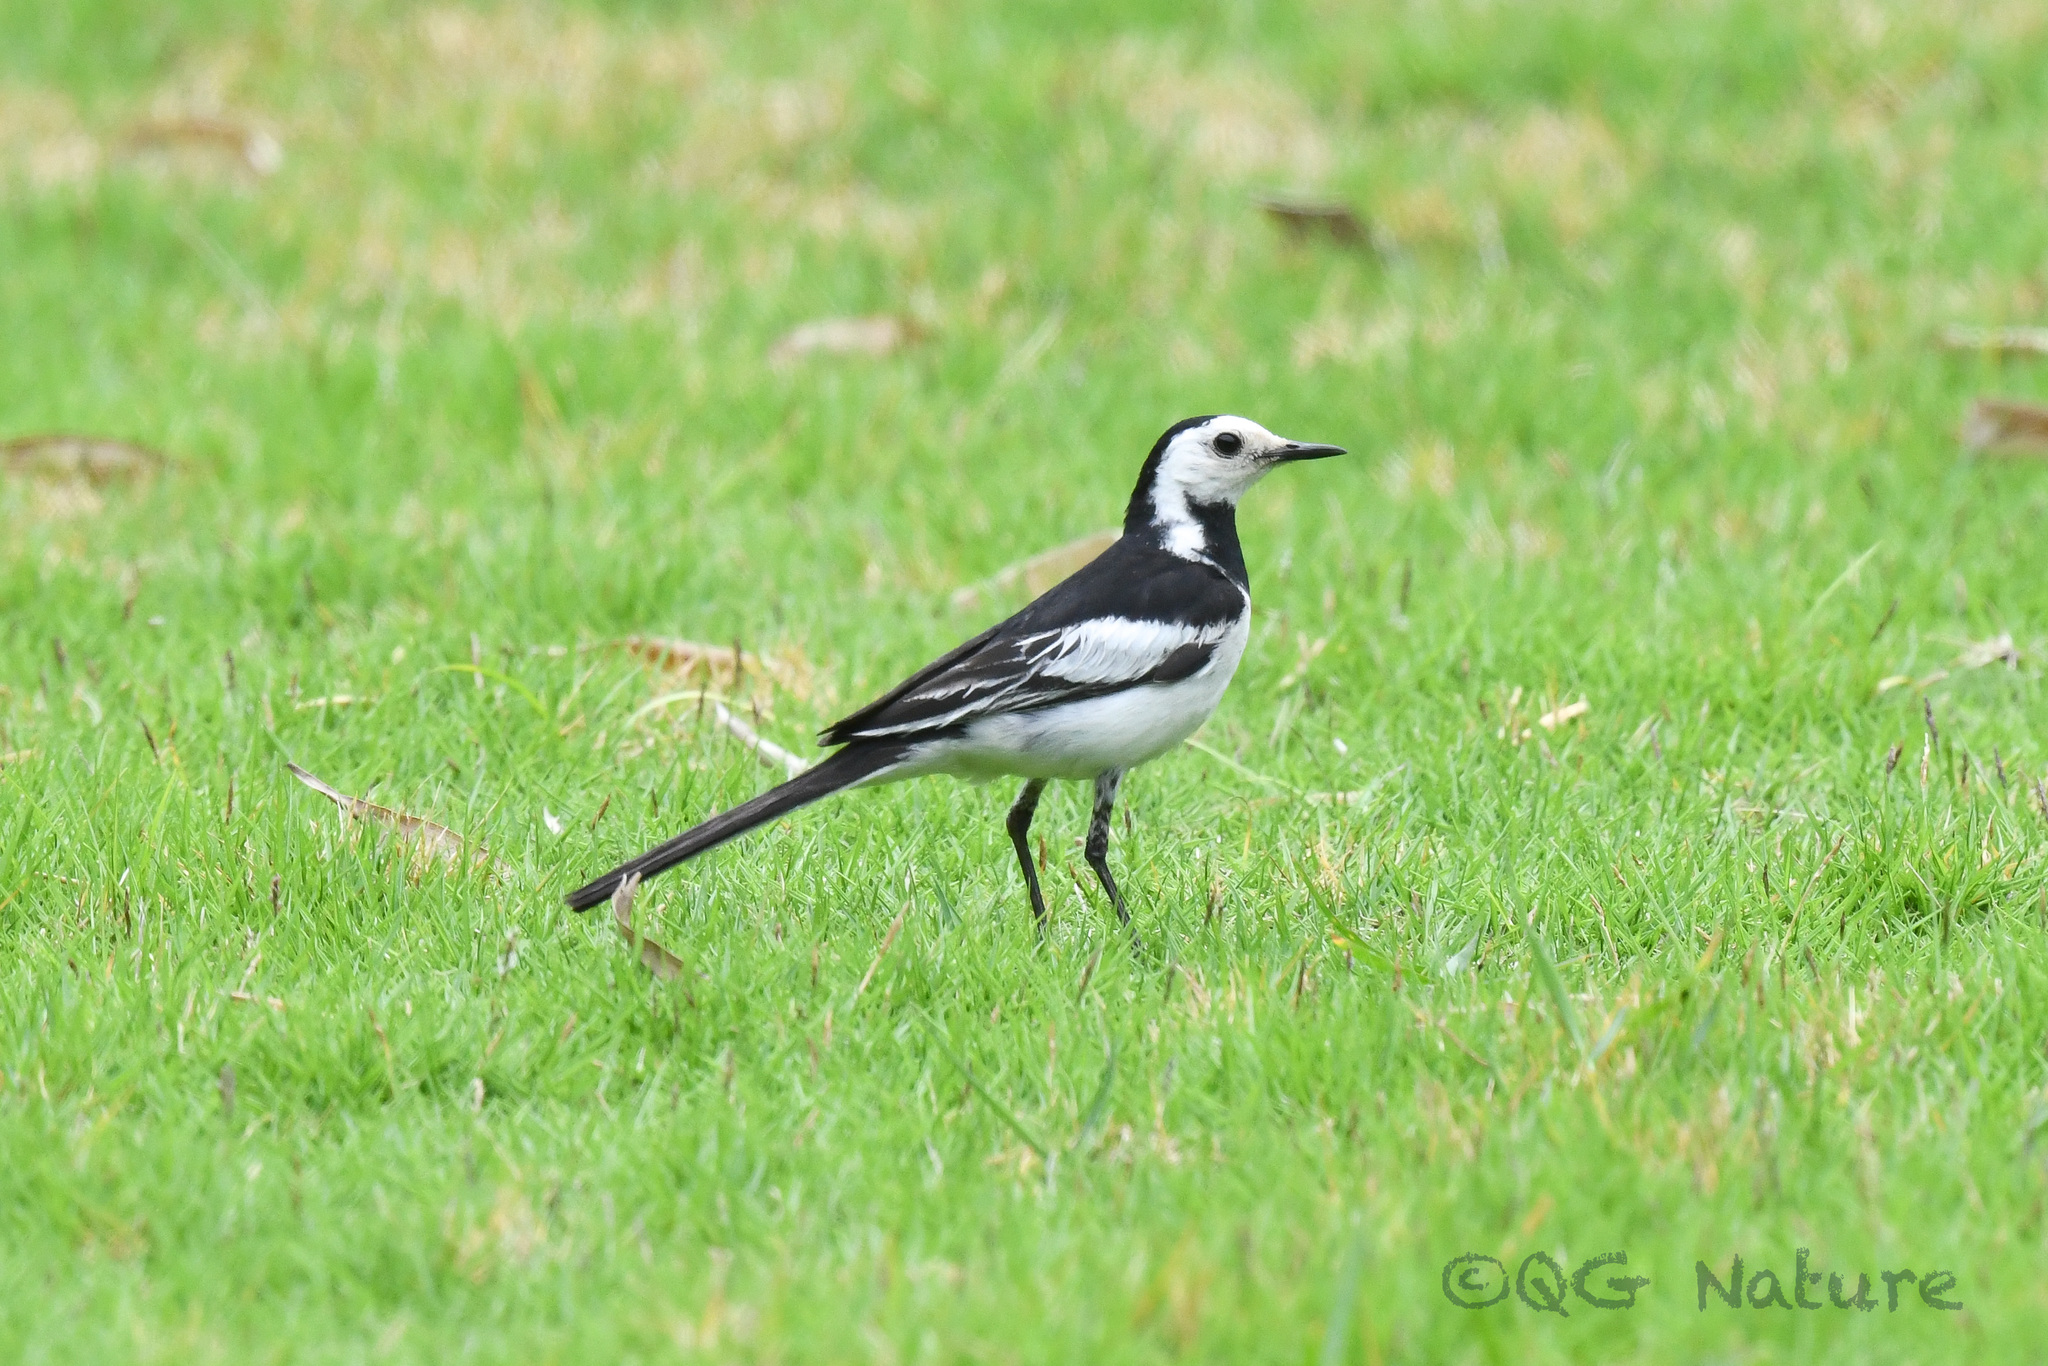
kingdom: Animalia
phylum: Chordata
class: Aves
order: Passeriformes
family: Motacillidae
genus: Motacilla
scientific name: Motacilla alba
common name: White wagtail
